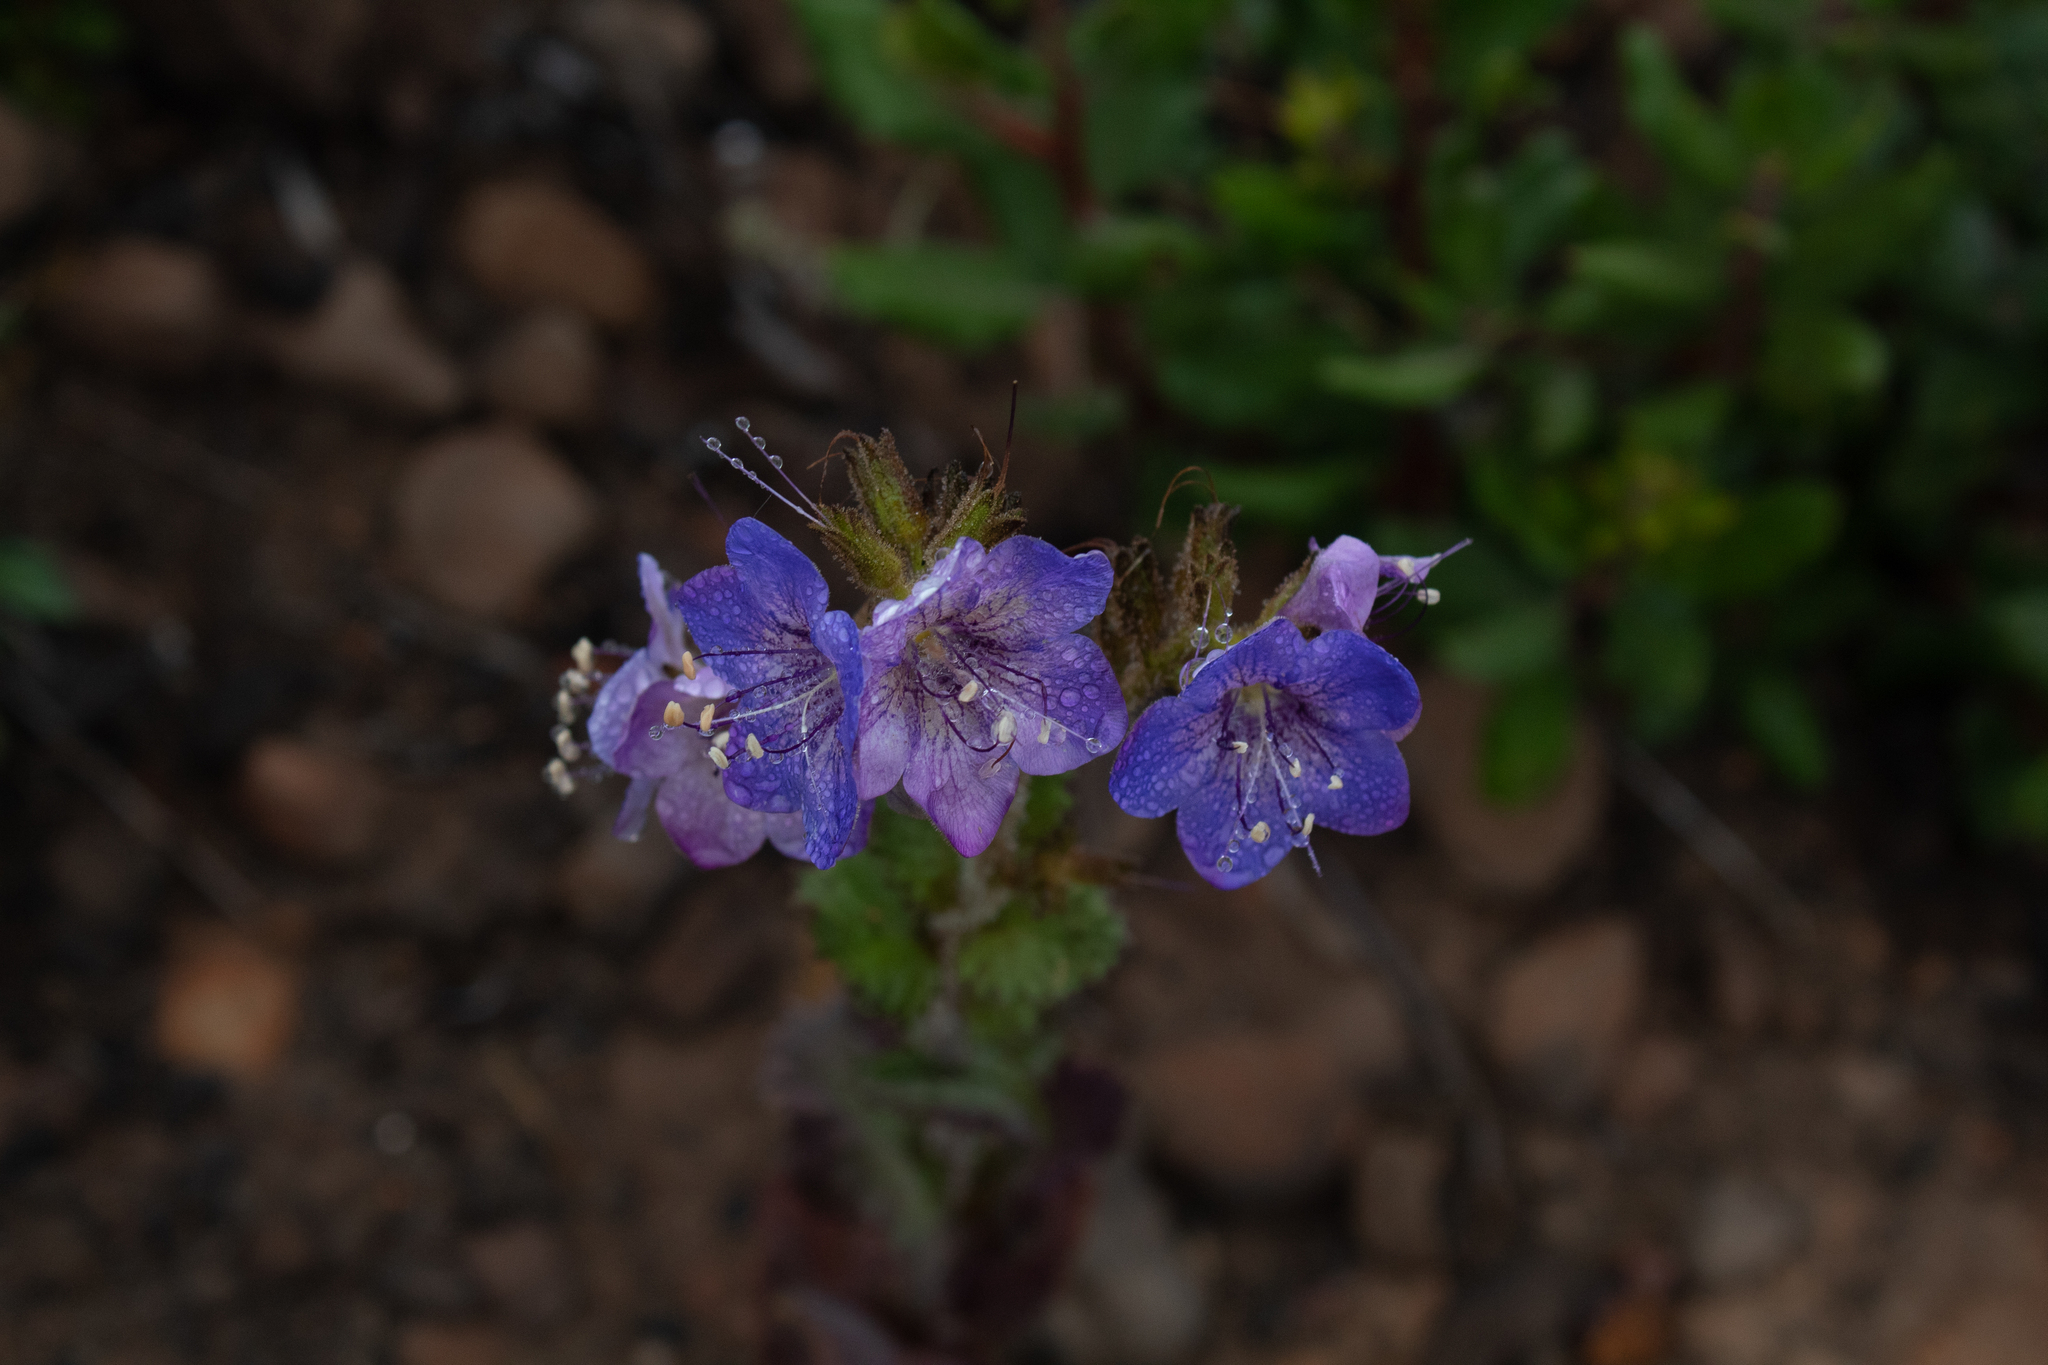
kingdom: Plantae
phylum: Tracheophyta
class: Magnoliopsida
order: Boraginales
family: Hydrophyllaceae
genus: Phacelia
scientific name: Phacelia grandiflora
